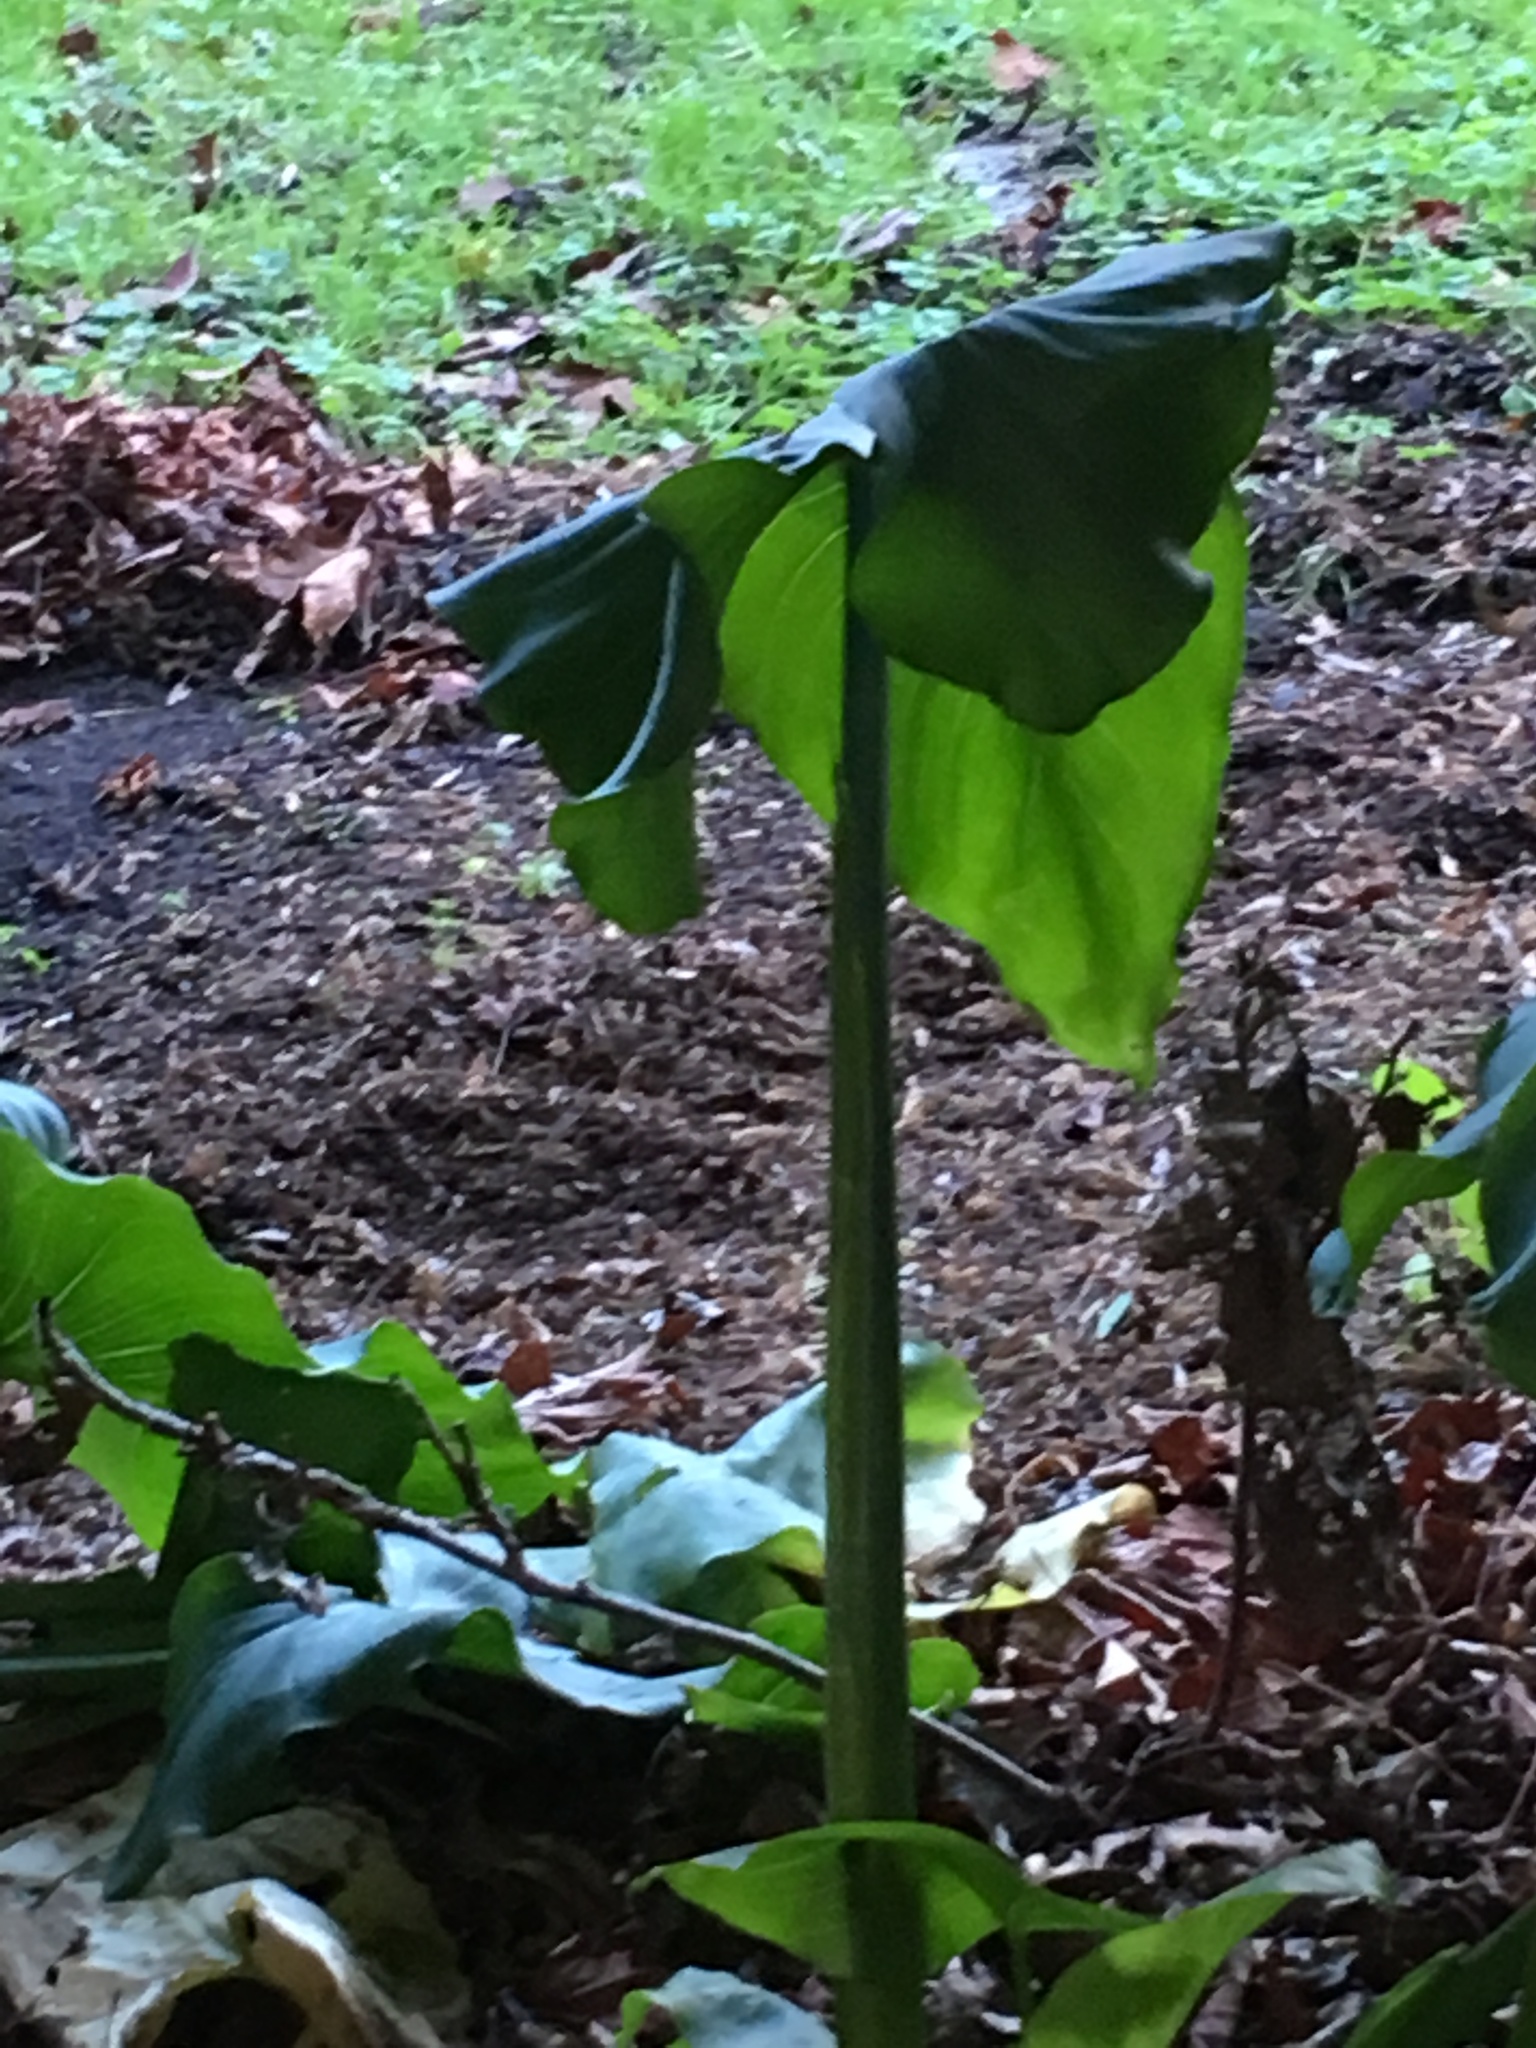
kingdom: Plantae
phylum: Tracheophyta
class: Liliopsida
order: Alismatales
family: Araceae
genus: Zantedeschia
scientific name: Zantedeschia aethiopica
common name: Altar-lily
